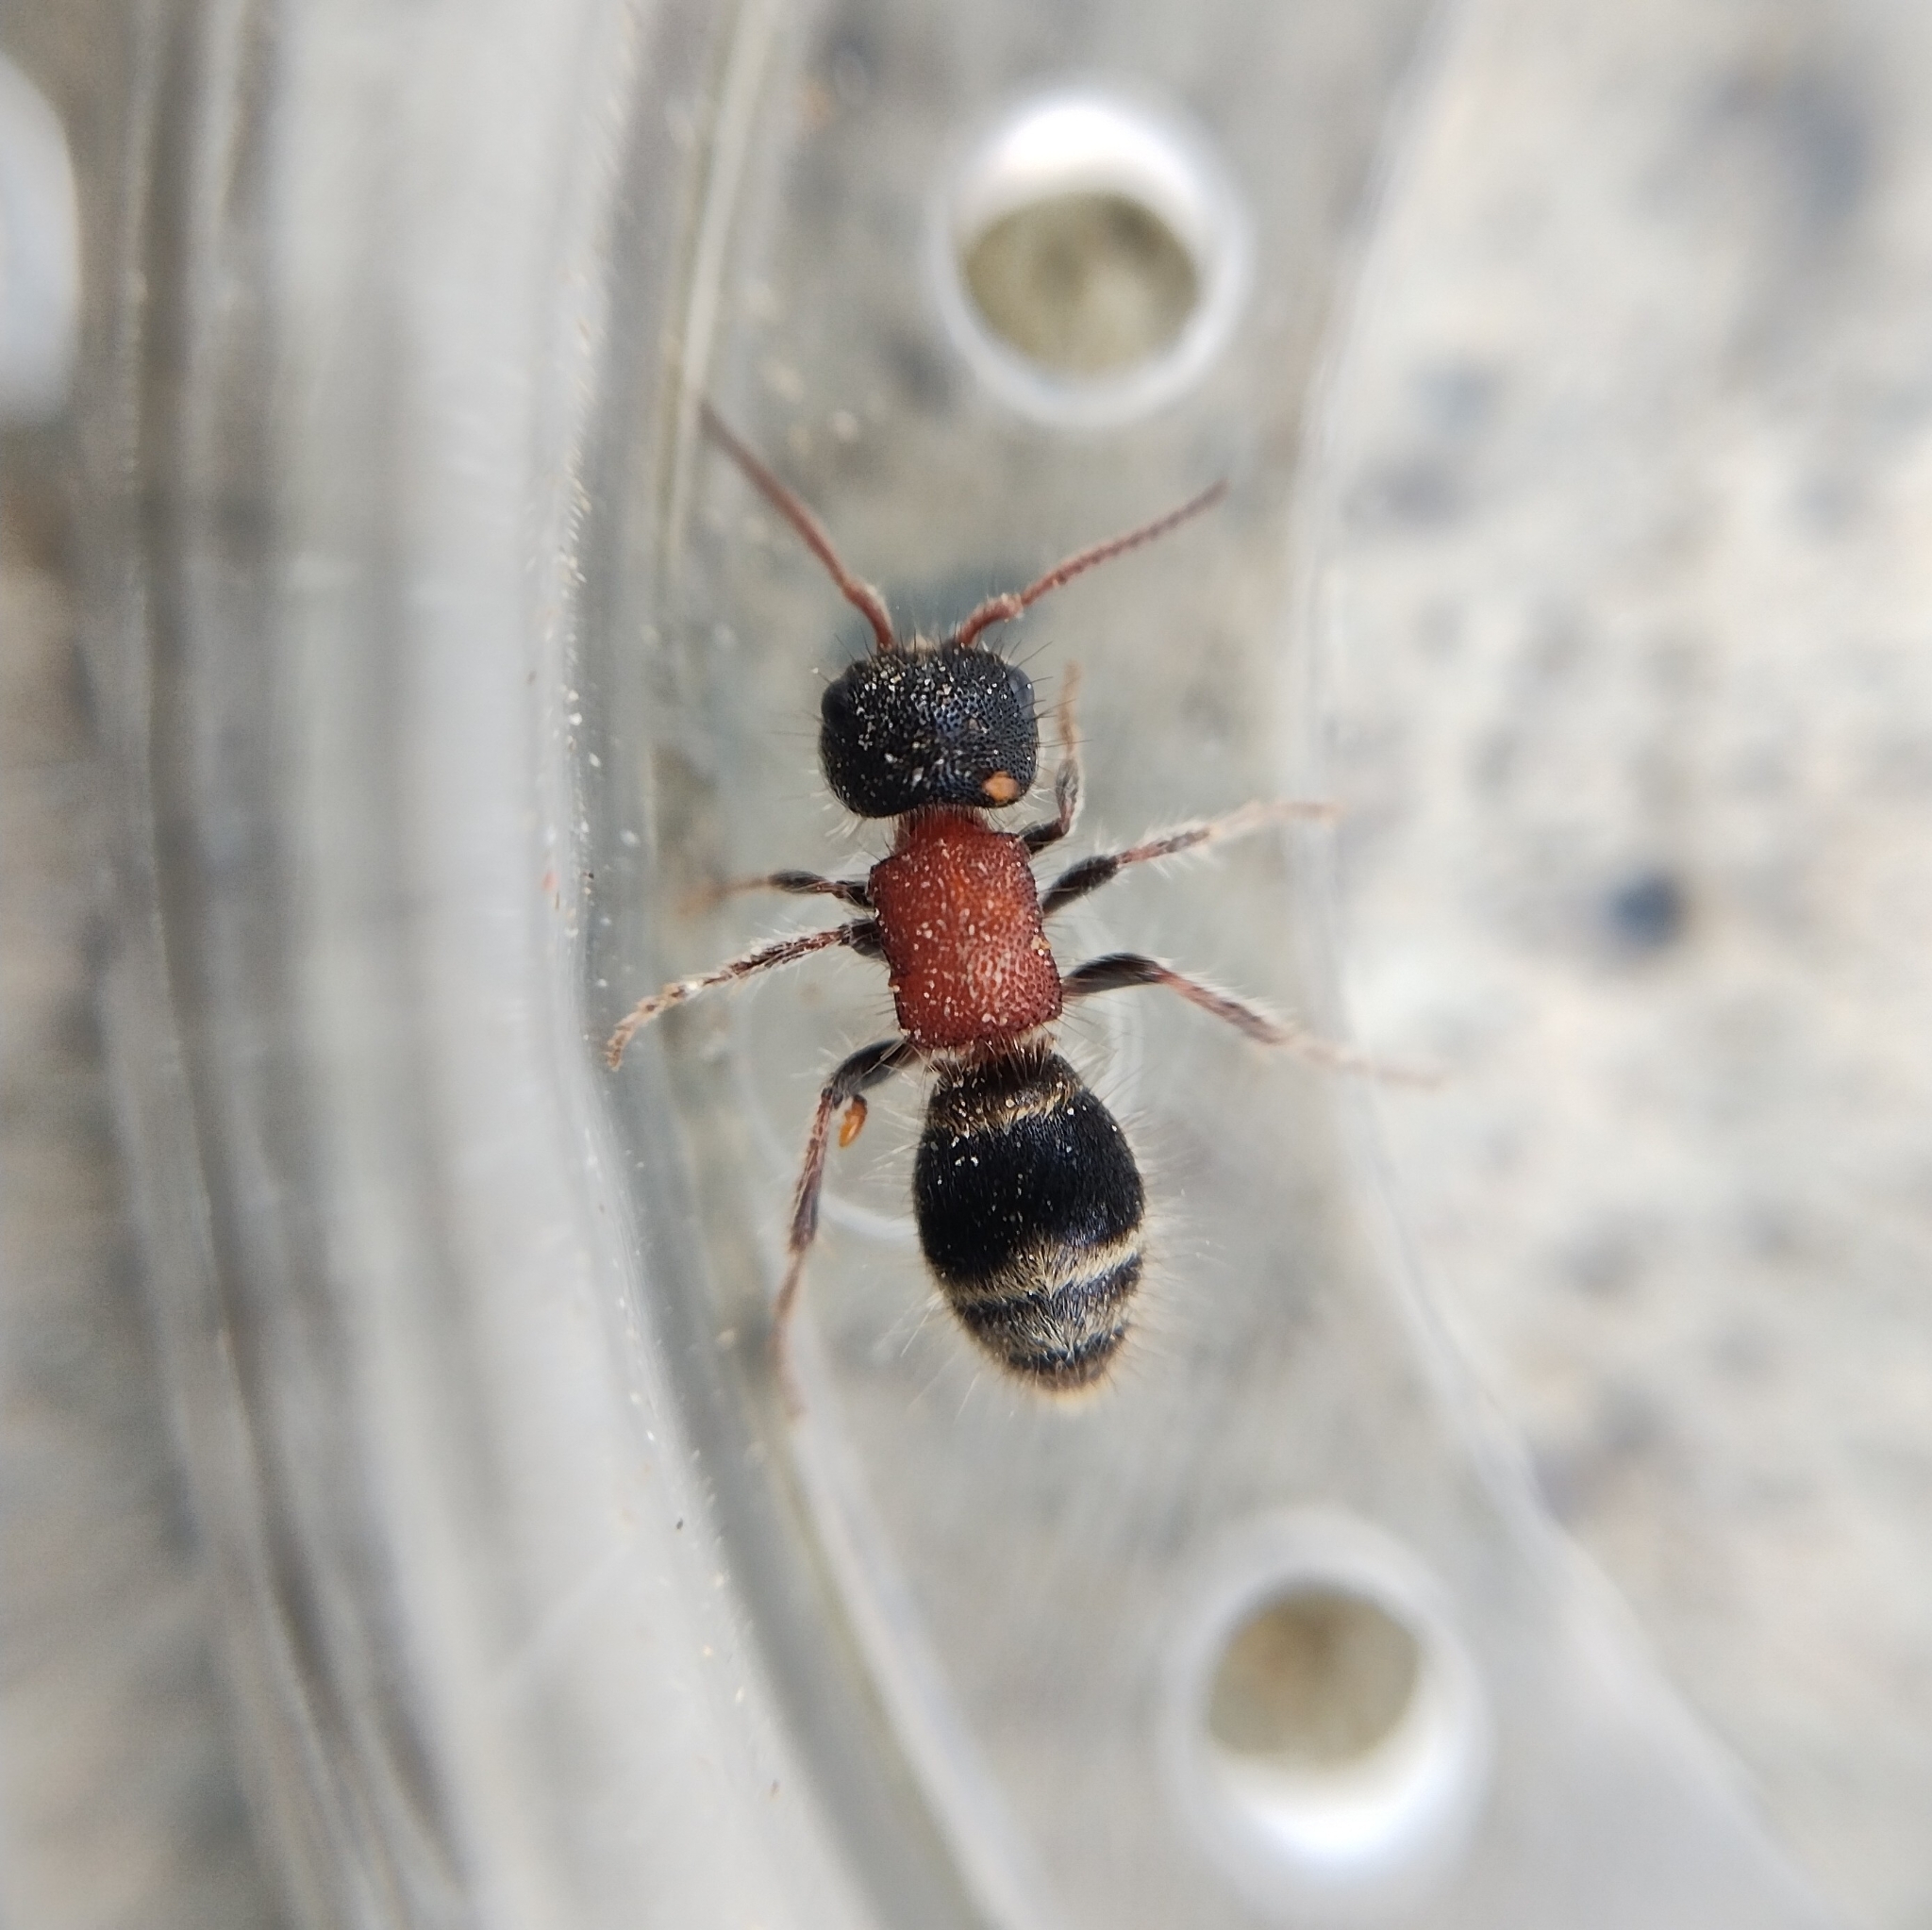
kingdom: Animalia
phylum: Arthropoda
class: Insecta
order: Hymenoptera
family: Mutillidae
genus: Myrmilla
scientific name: Myrmilla calva
